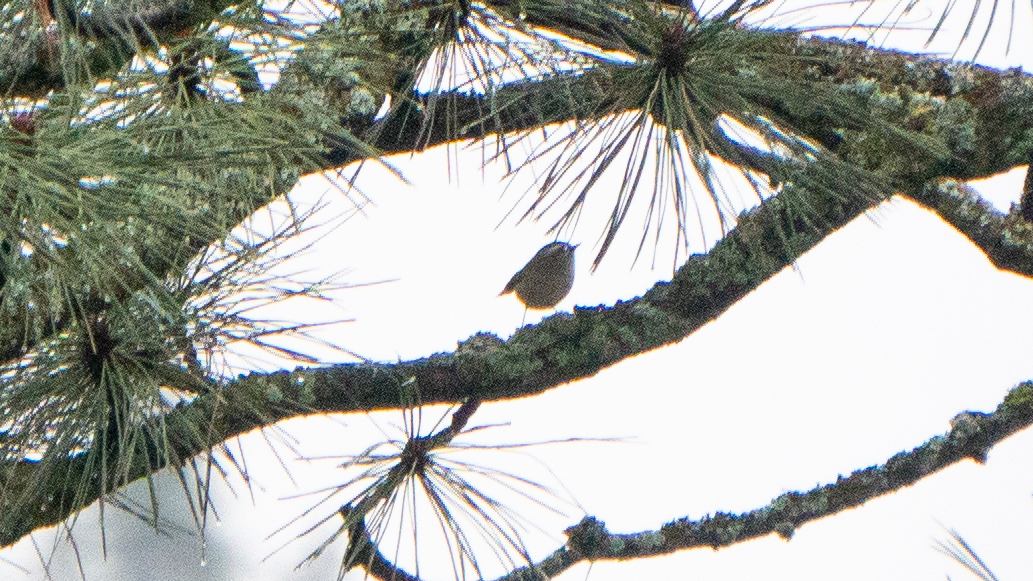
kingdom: Animalia
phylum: Chordata
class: Aves
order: Passeriformes
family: Regulidae
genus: Regulus
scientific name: Regulus satrapa
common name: Golden-crowned kinglet
